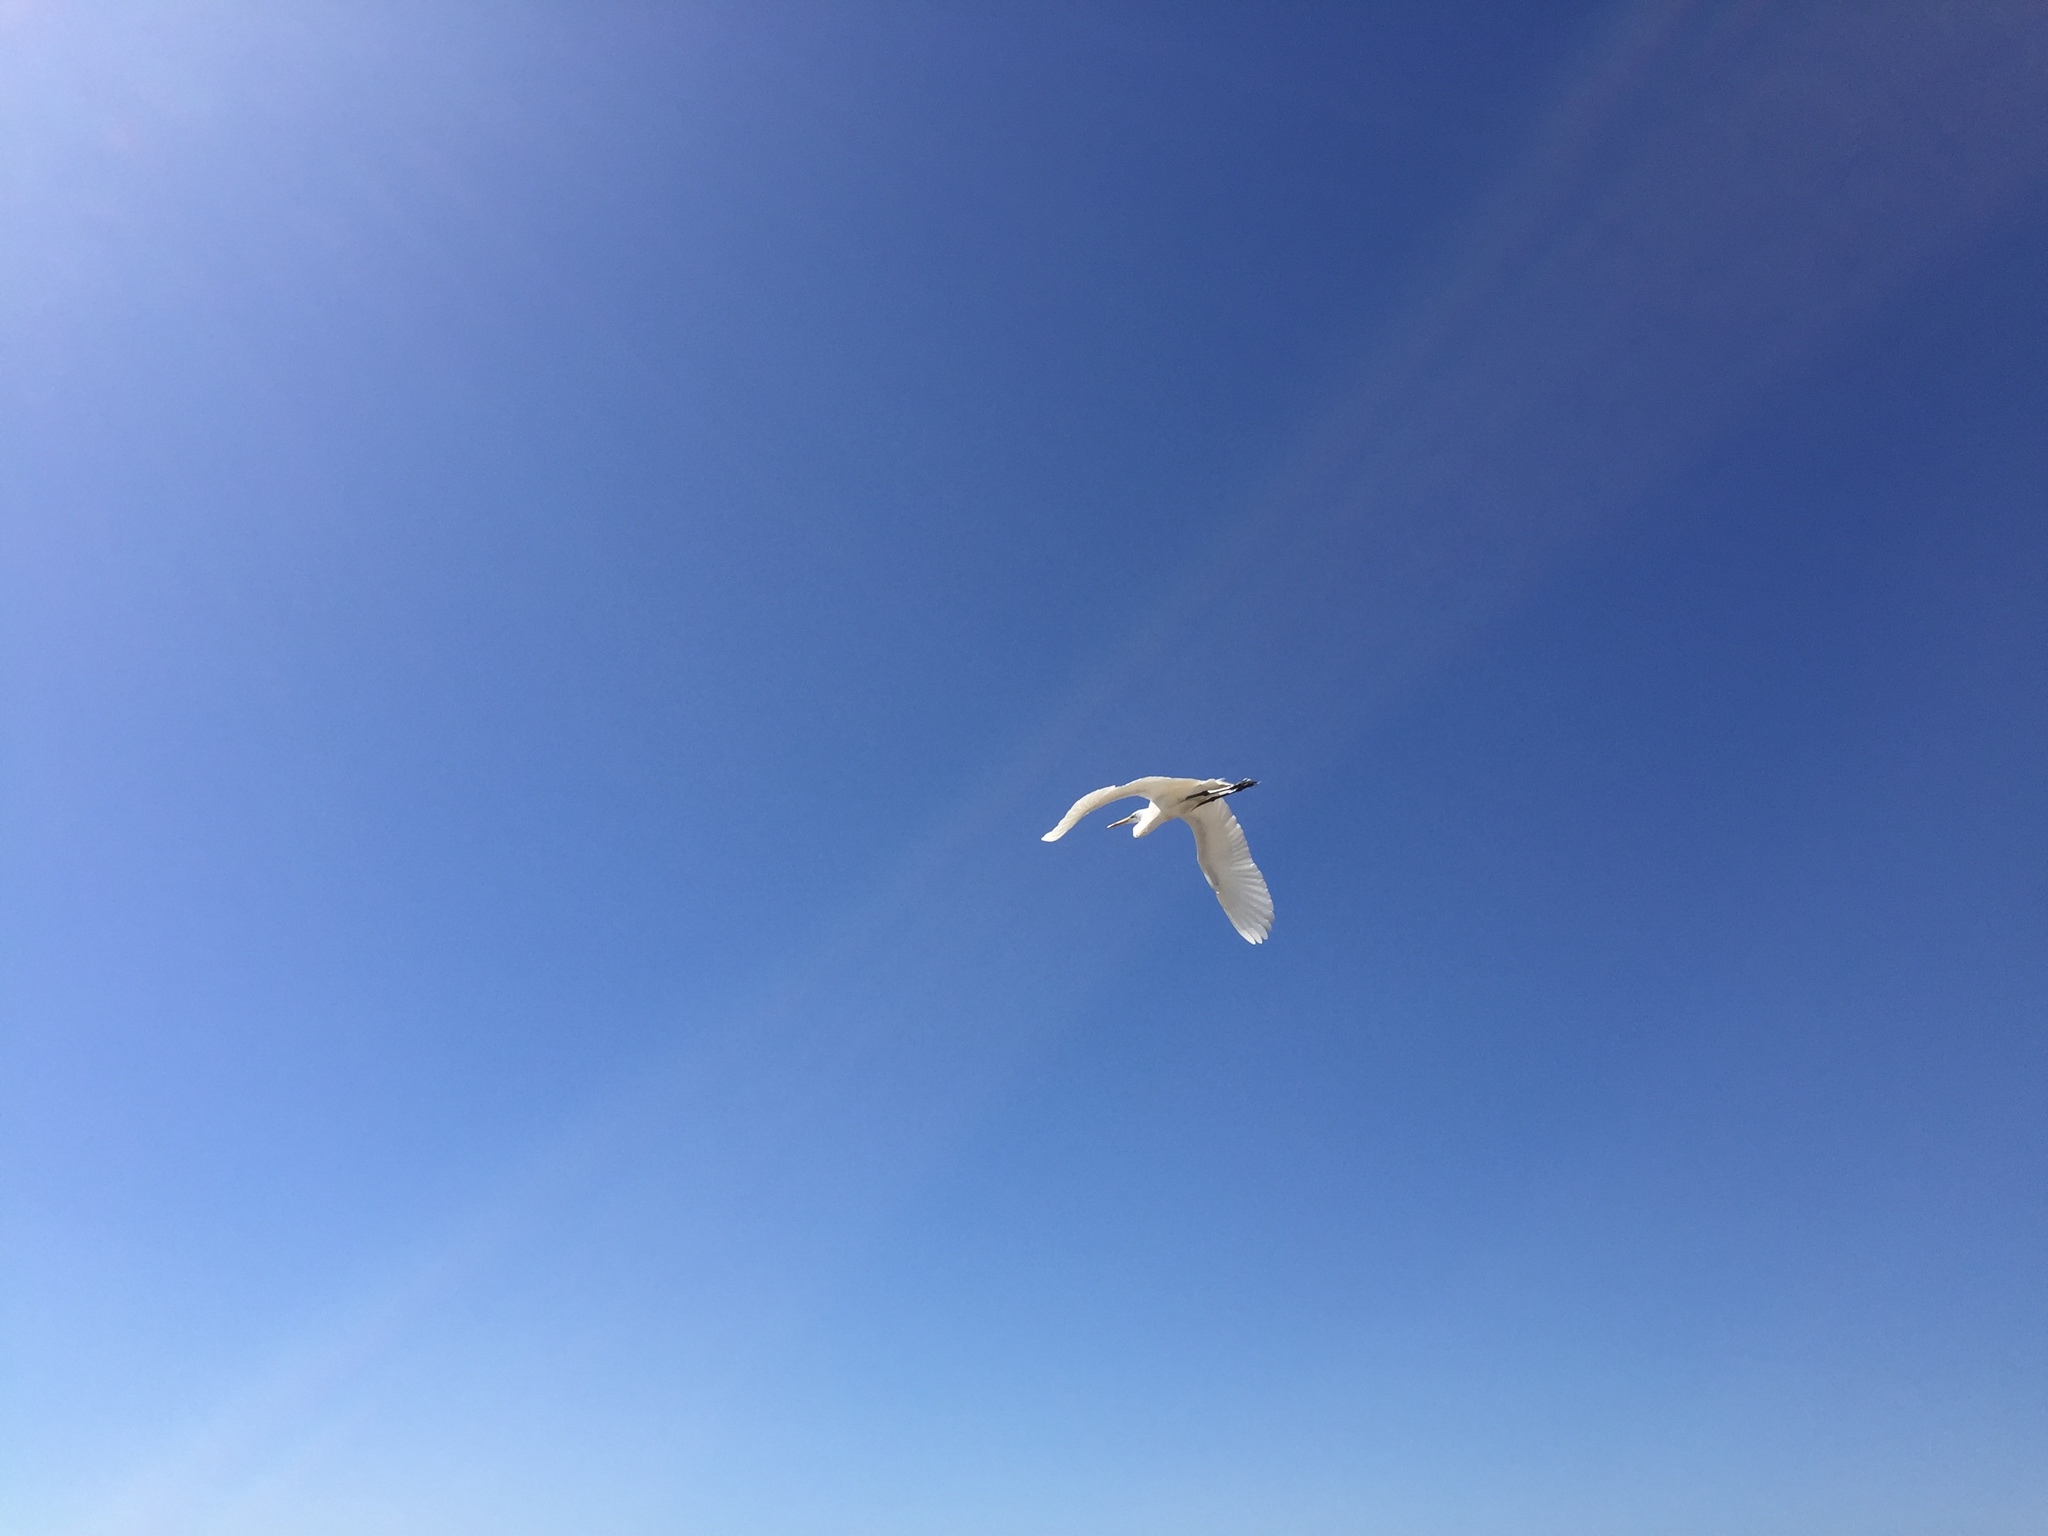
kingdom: Animalia
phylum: Chordata
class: Aves
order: Pelecaniformes
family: Ardeidae
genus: Ardea
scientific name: Ardea alba
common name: Great egret
